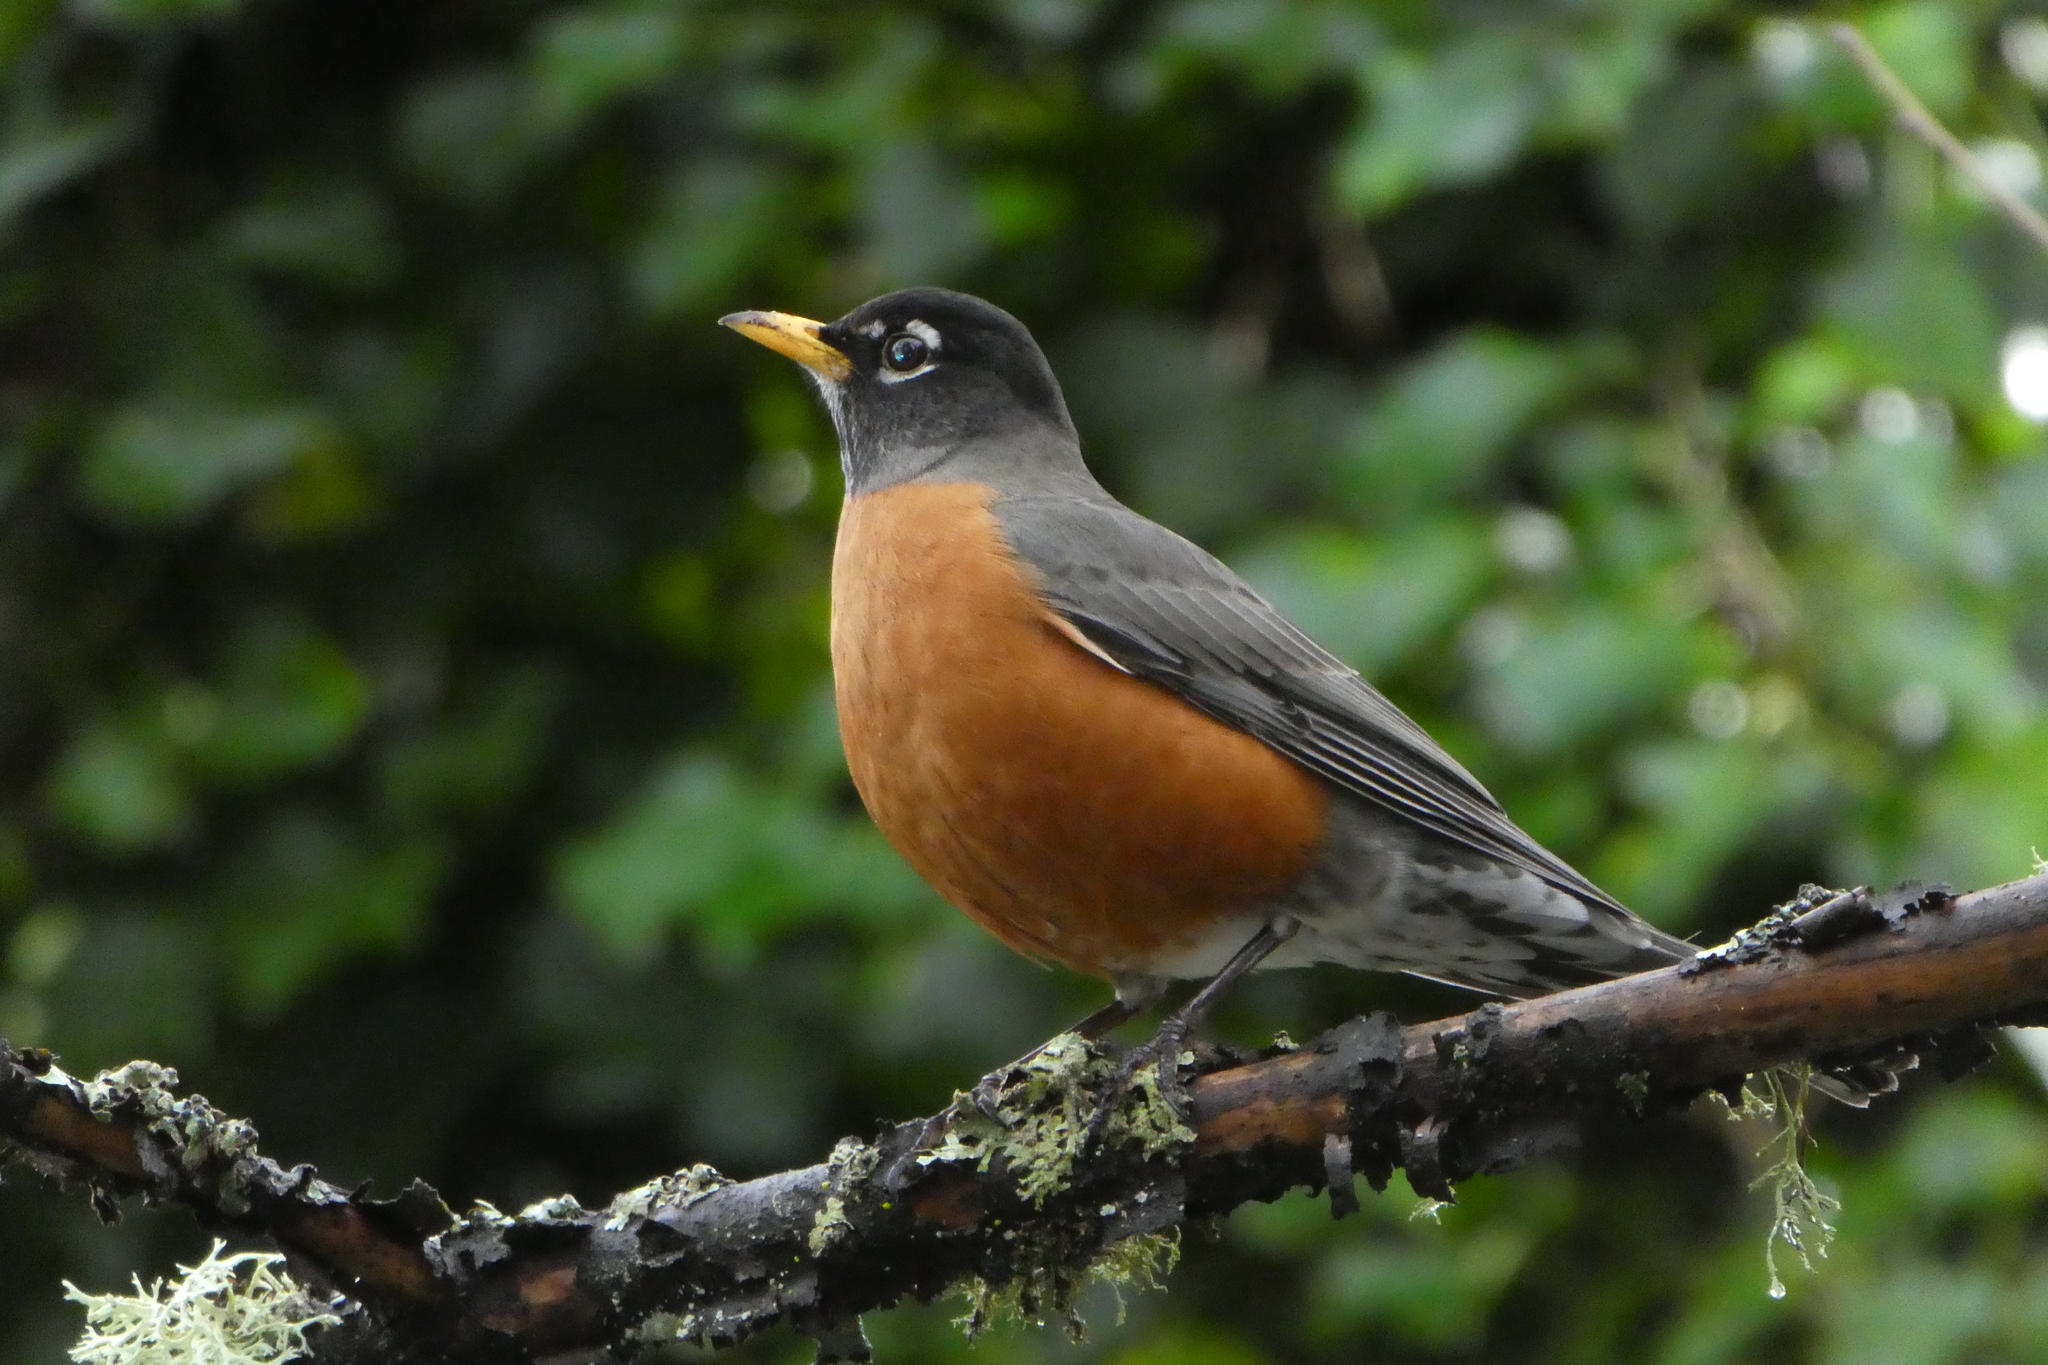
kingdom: Animalia
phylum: Chordata
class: Aves
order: Passeriformes
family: Turdidae
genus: Turdus
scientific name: Turdus migratorius
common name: American robin
